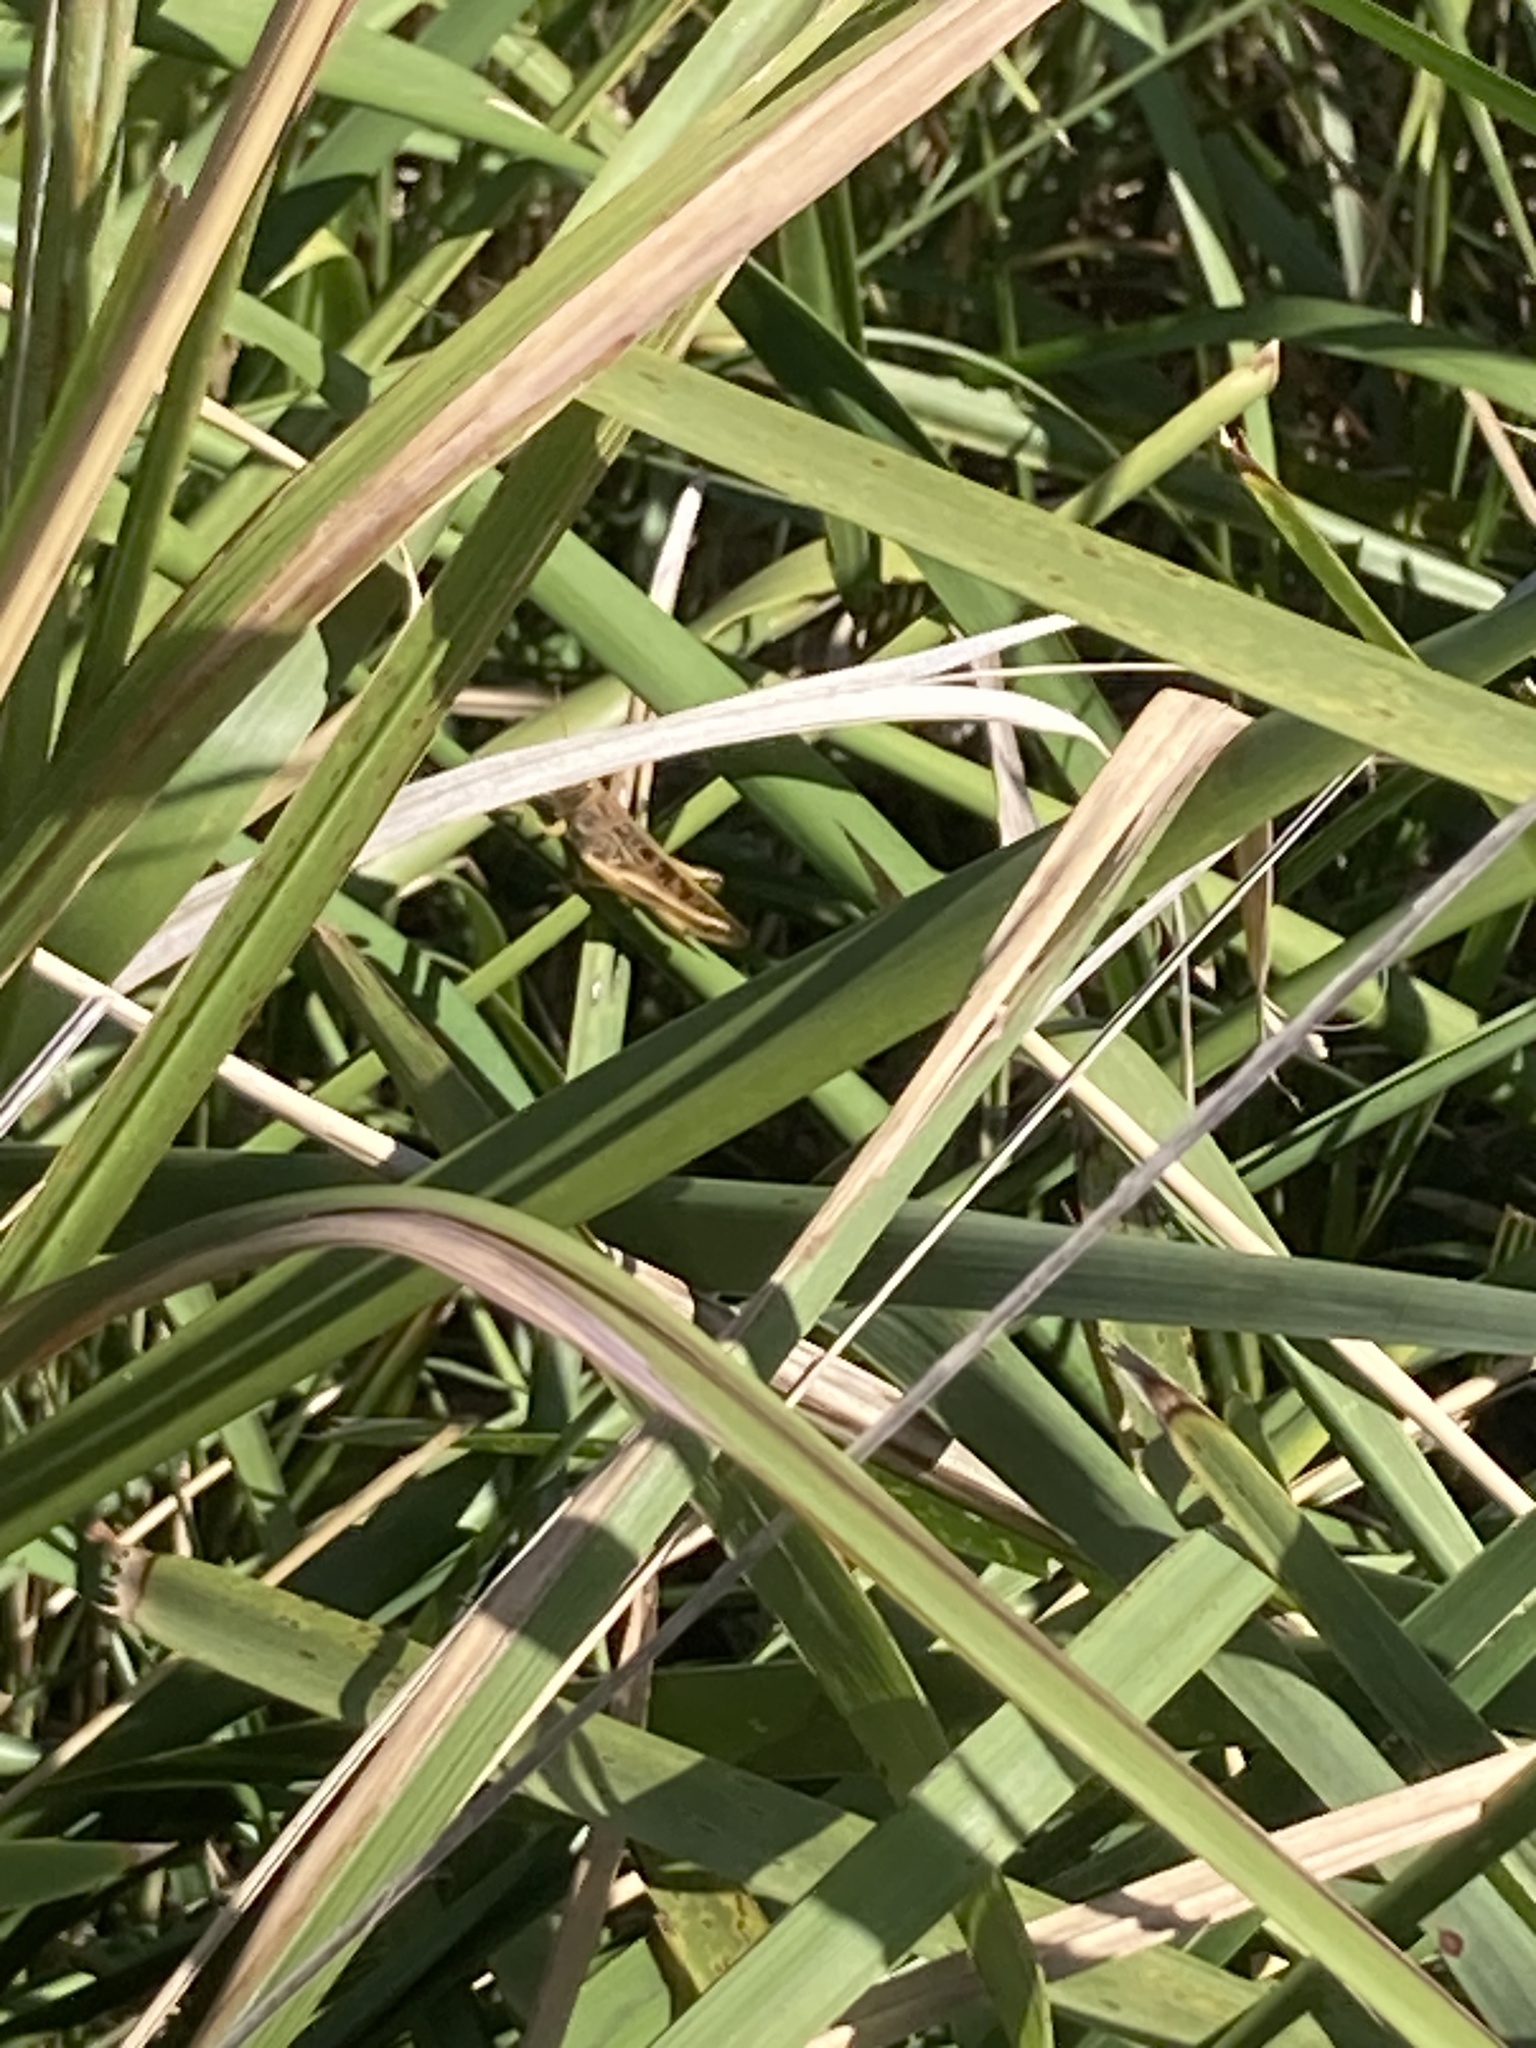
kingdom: Animalia
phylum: Arthropoda
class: Insecta
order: Orthoptera
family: Acrididae
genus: Austracris
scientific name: Austracris proxima
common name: Confusing spur-throated locust
